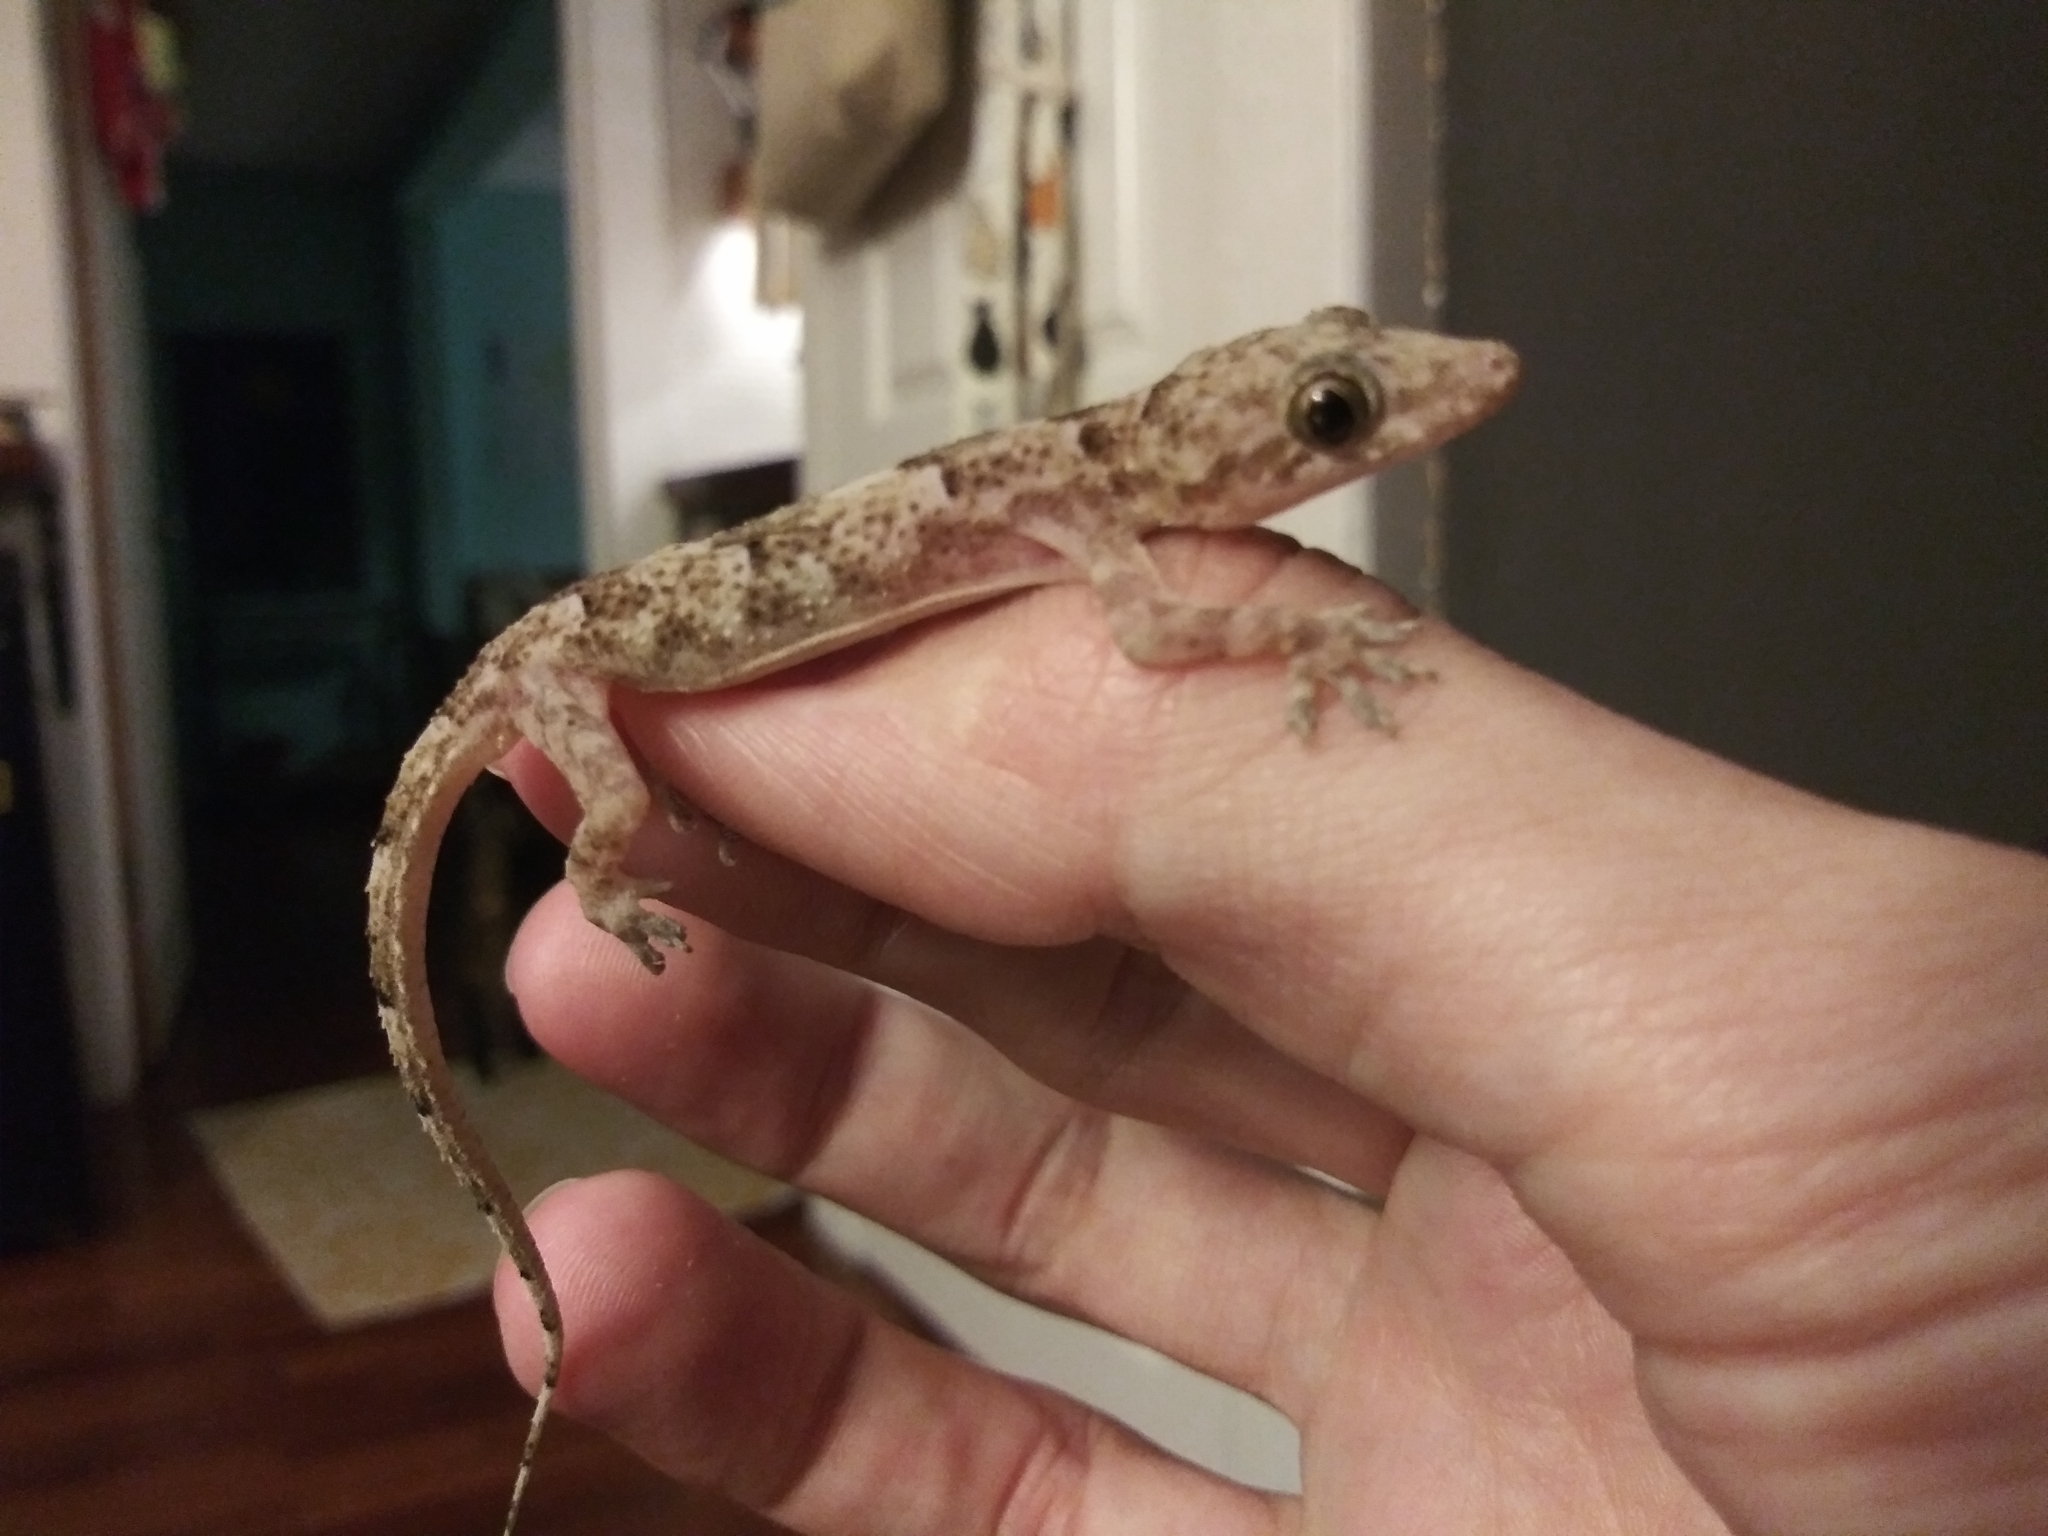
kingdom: Animalia
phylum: Chordata
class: Squamata
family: Gekkonidae
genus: Hemidactylus
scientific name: Hemidactylus mabouia
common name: House gecko
